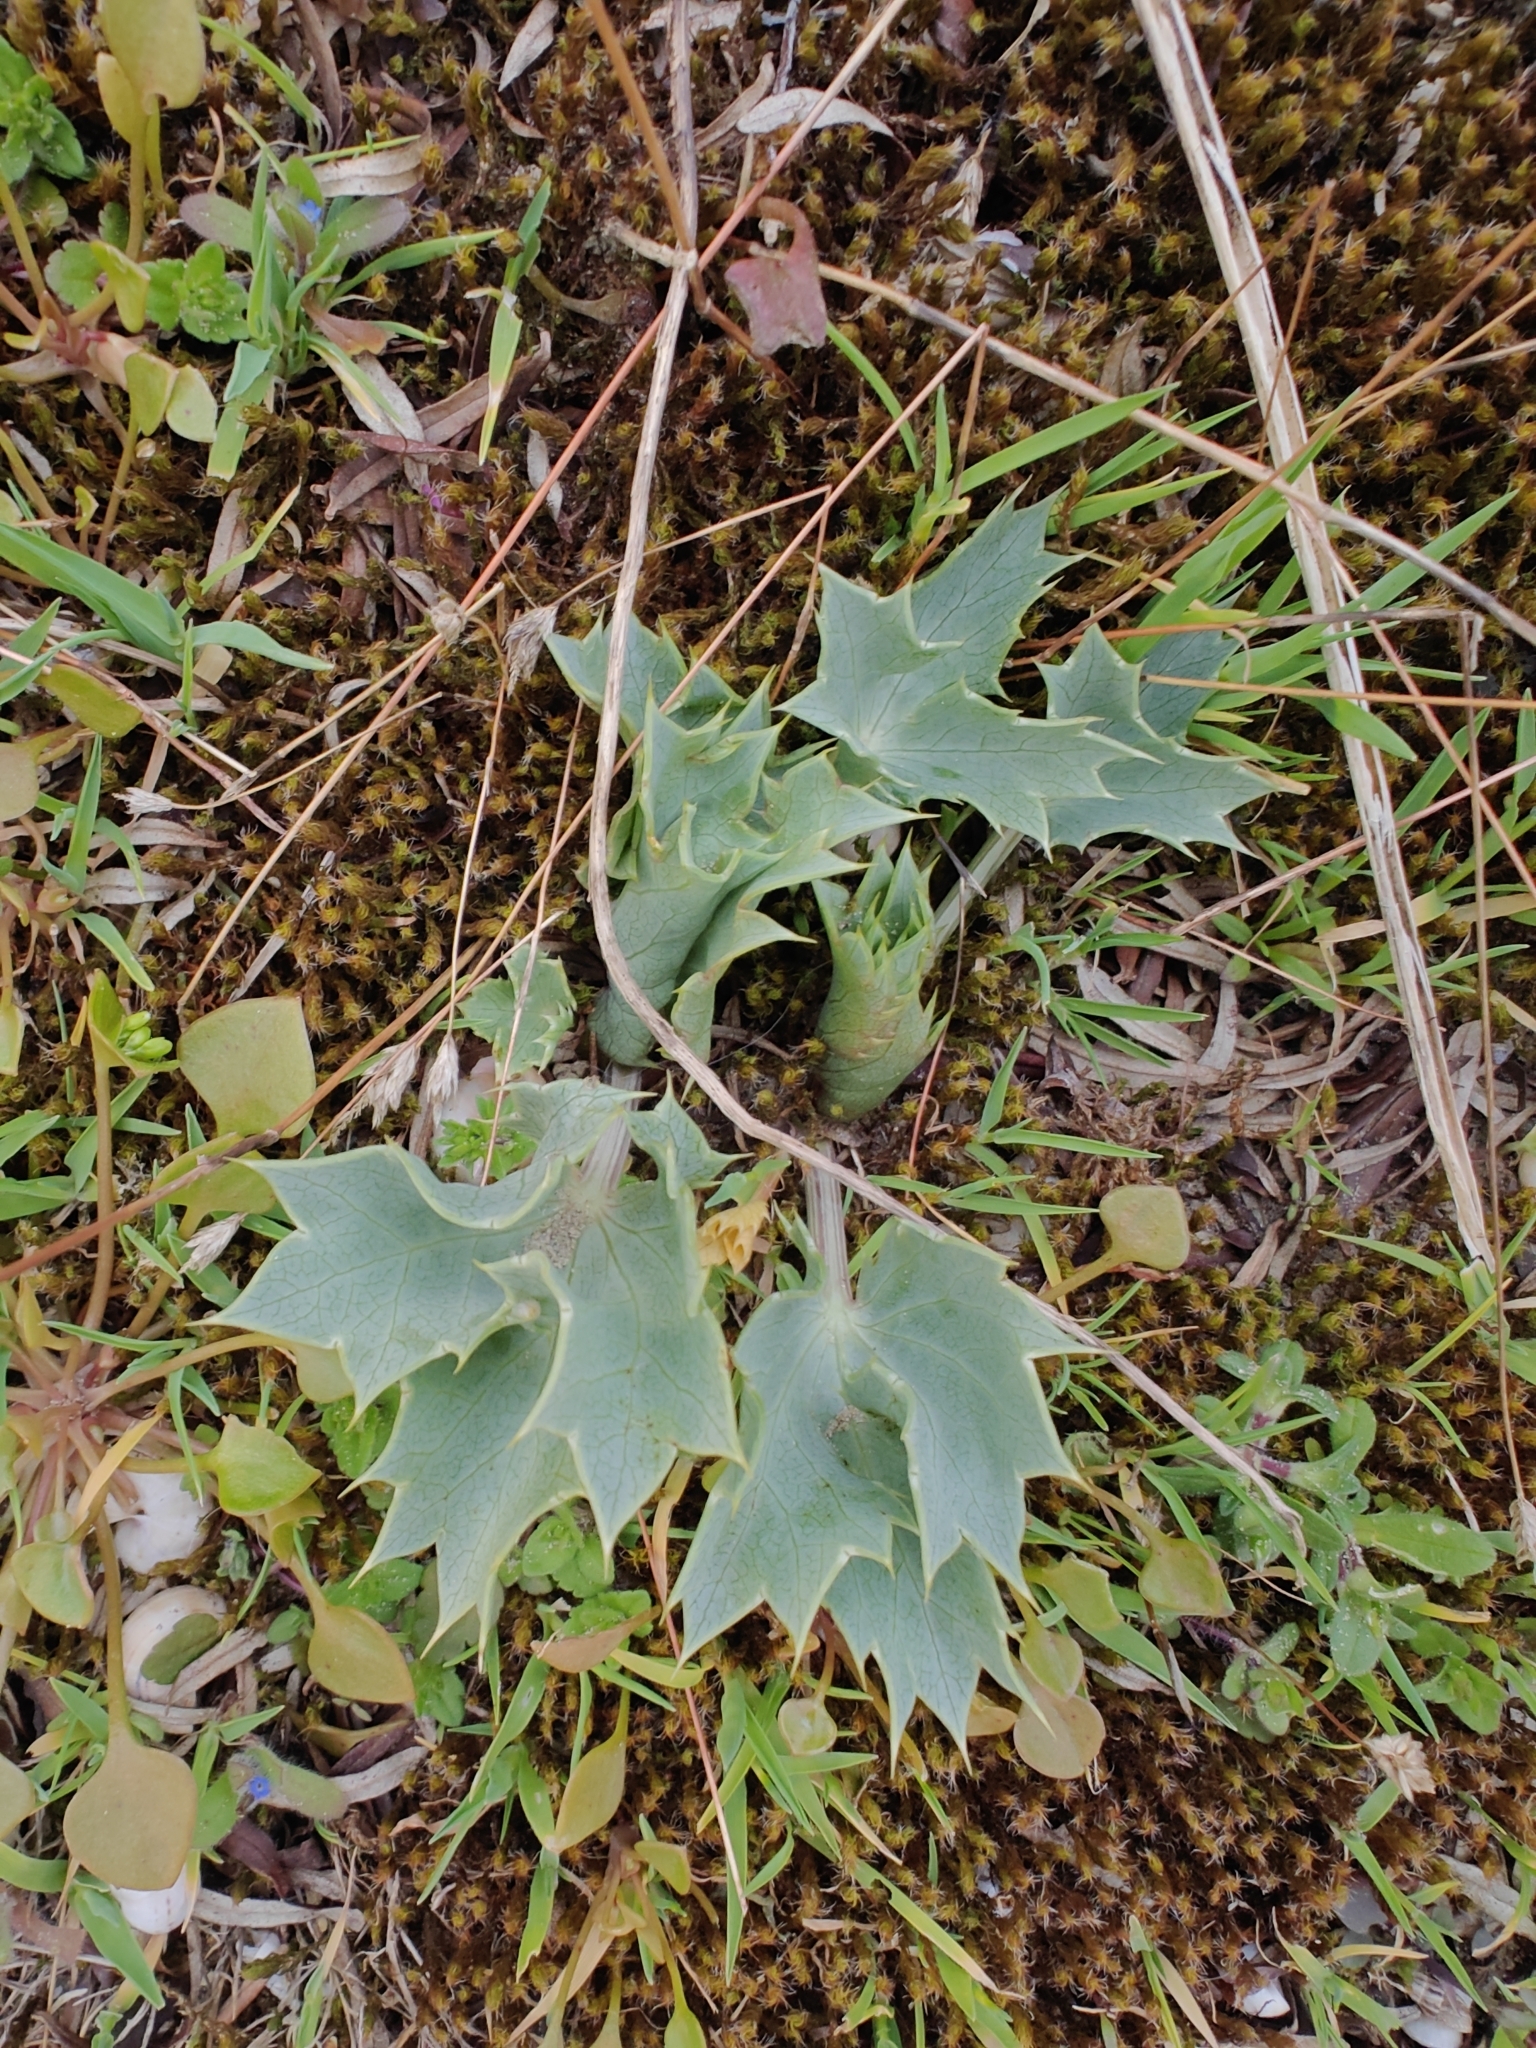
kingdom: Plantae
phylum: Tracheophyta
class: Magnoliopsida
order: Apiales
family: Apiaceae
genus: Eryngium
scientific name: Eryngium maritimum
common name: Sea-holly
